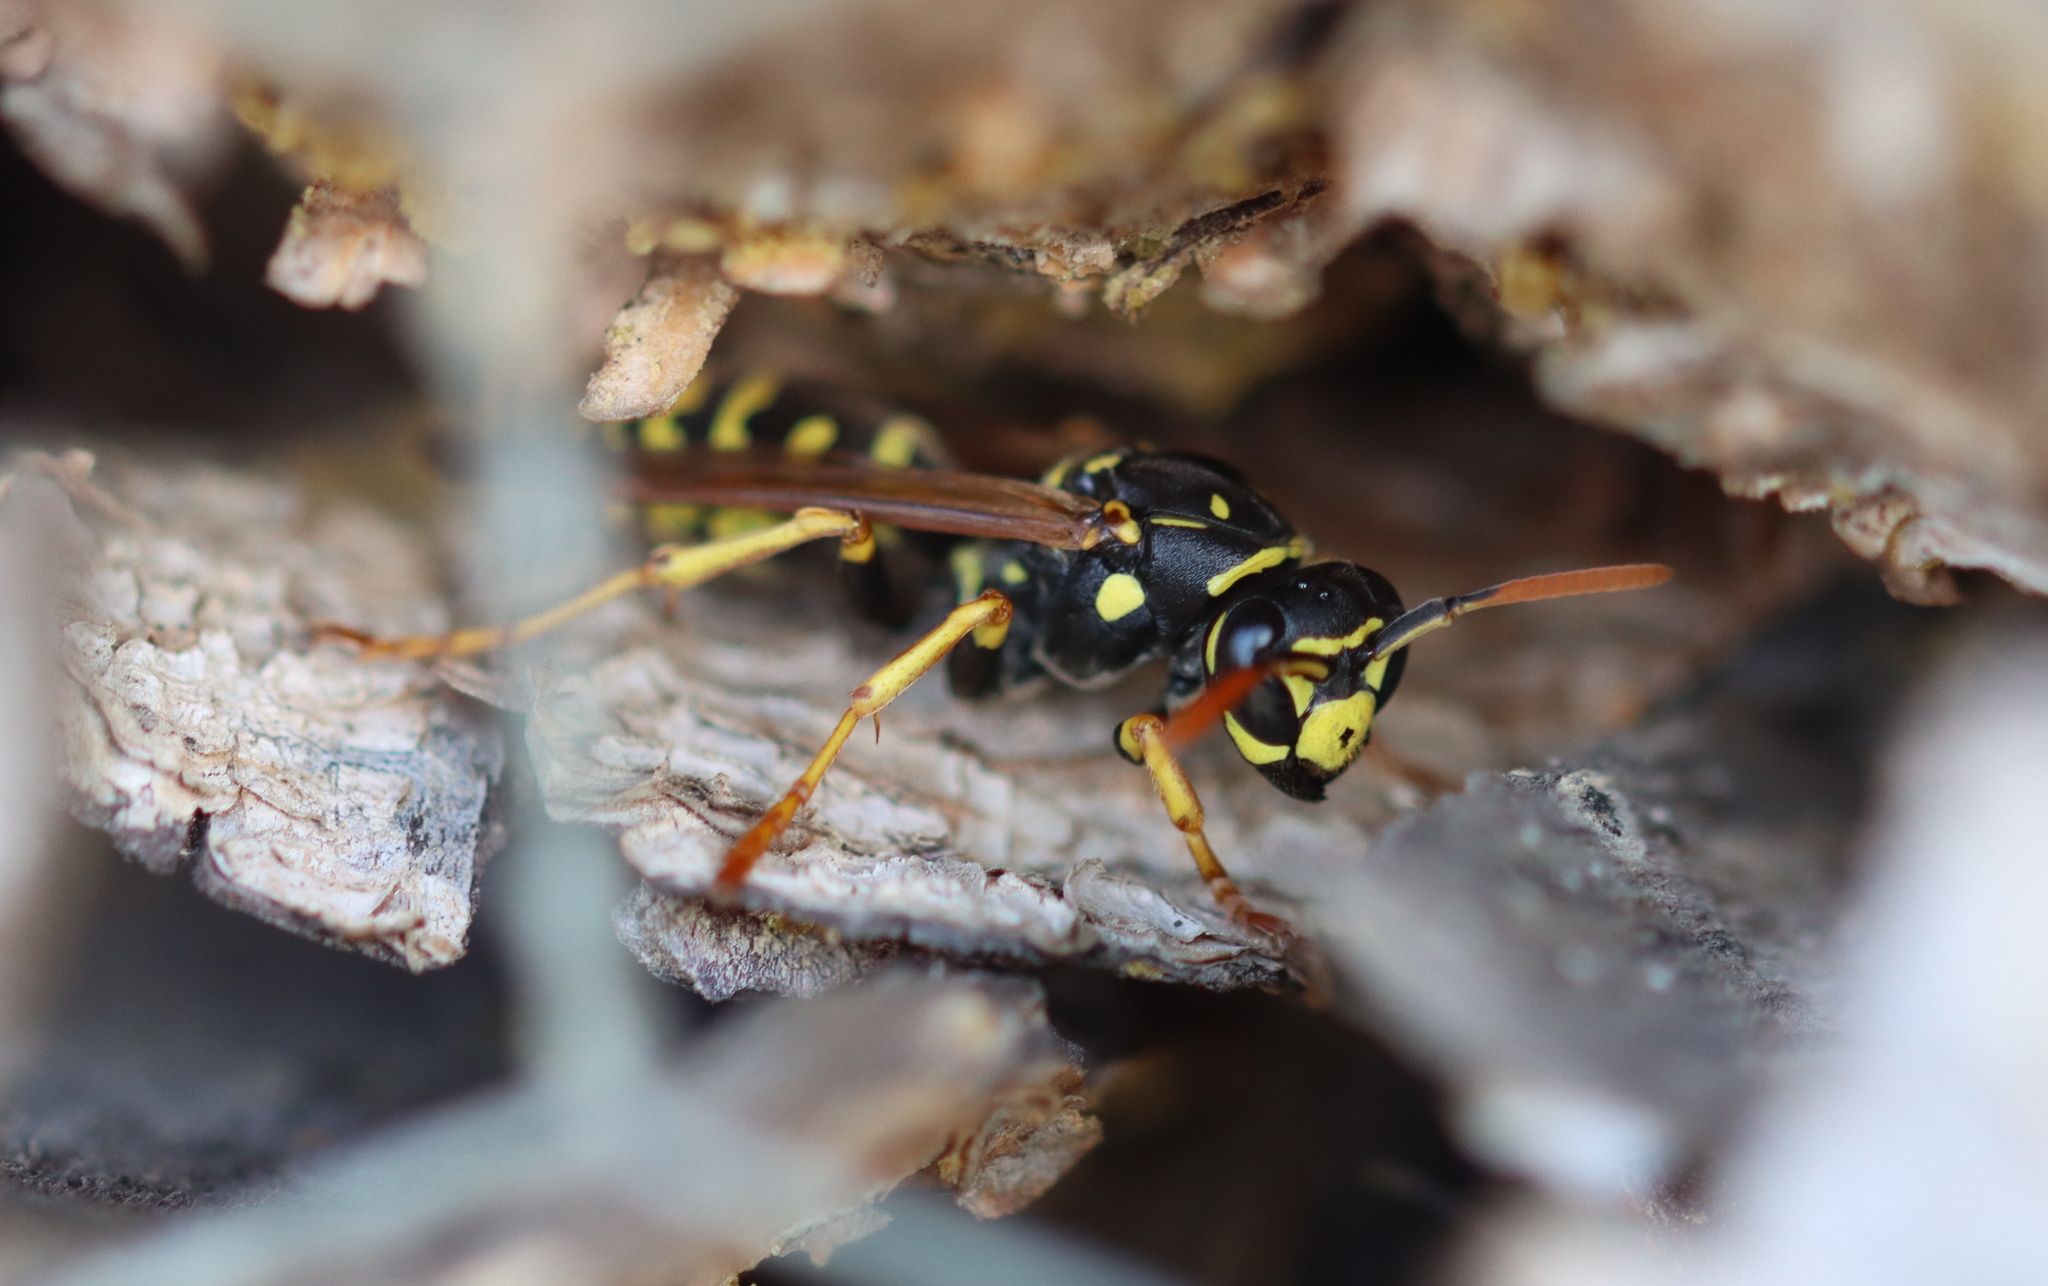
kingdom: Animalia
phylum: Arthropoda
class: Insecta
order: Hymenoptera
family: Eumenidae
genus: Polistes
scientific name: Polistes dominula
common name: Paper wasp
